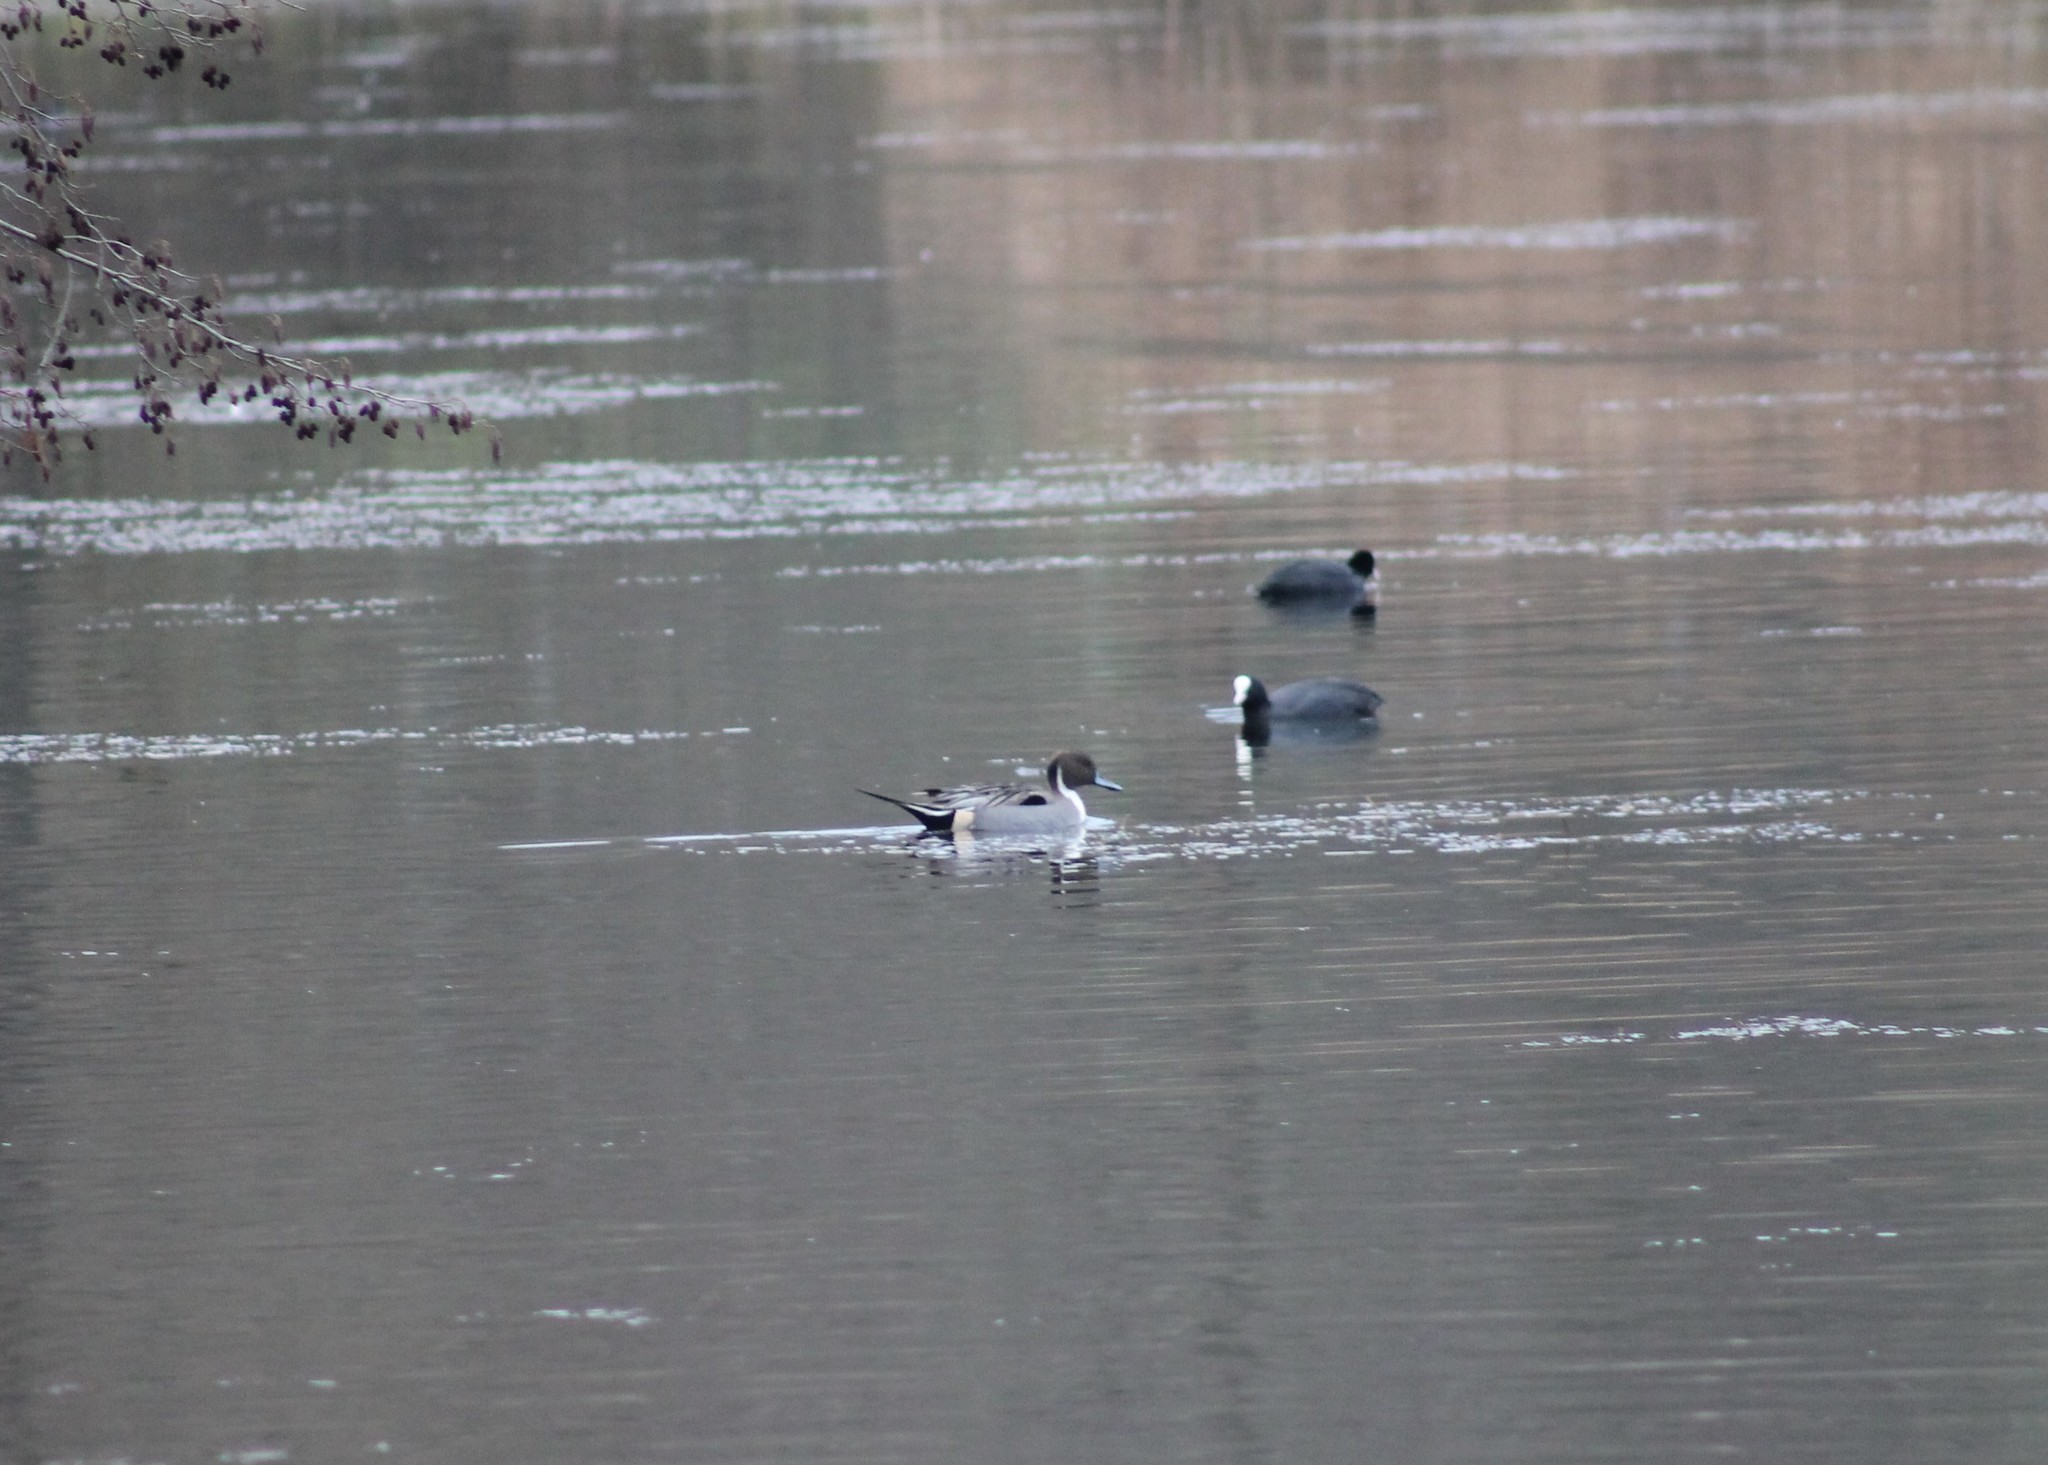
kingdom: Animalia
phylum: Chordata
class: Aves
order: Anseriformes
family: Anatidae
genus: Anas
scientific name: Anas acuta
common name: Northern pintail
